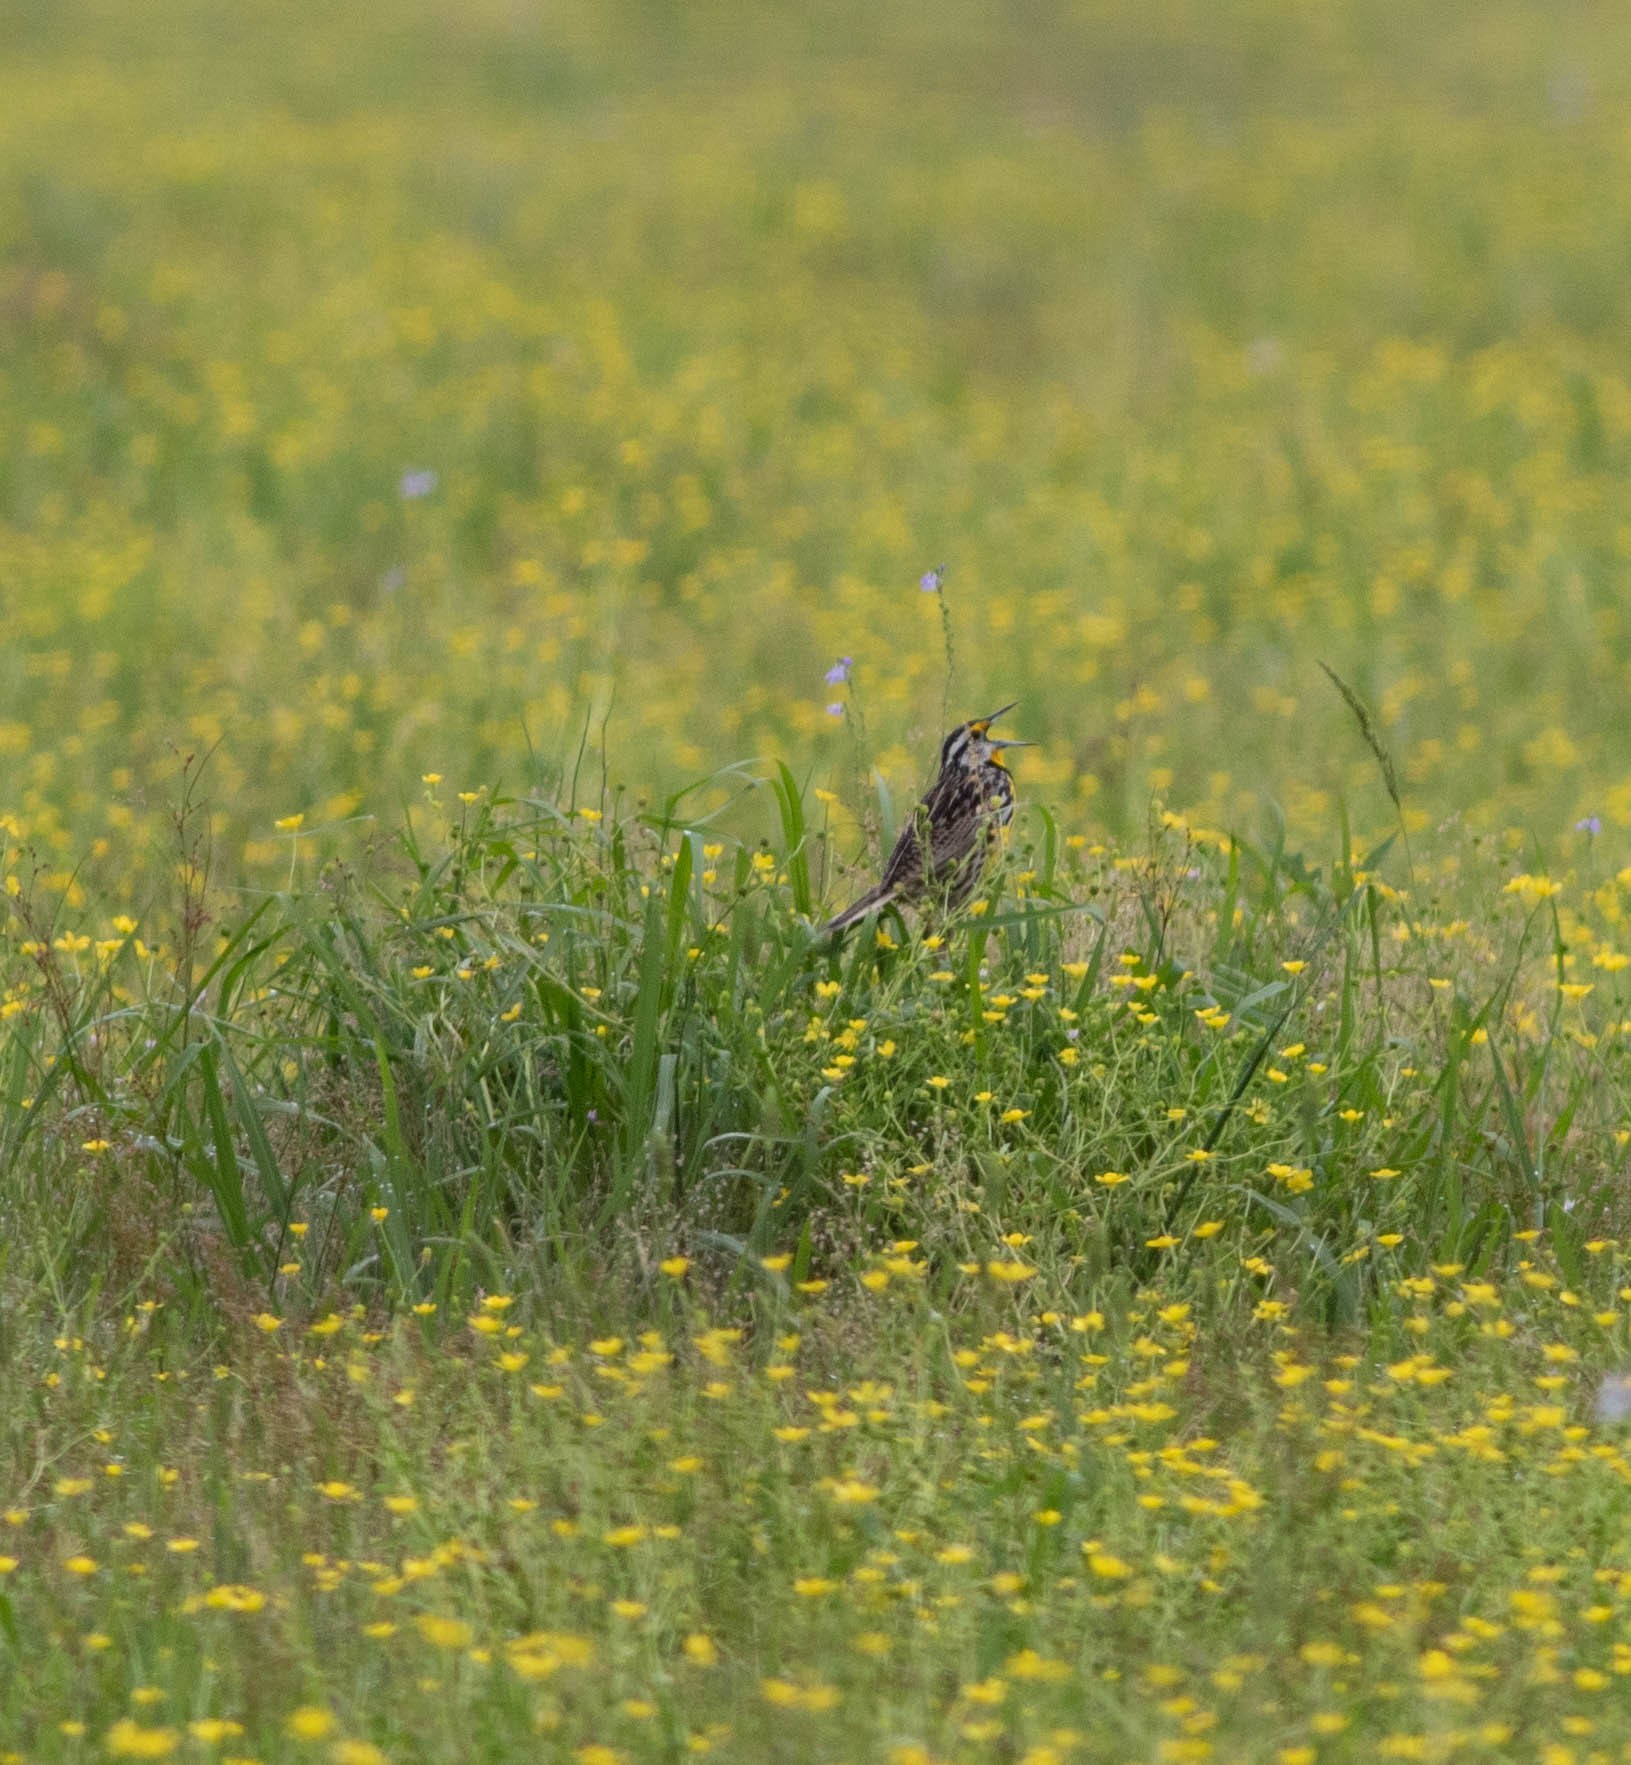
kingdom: Animalia
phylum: Chordata
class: Aves
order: Passeriformes
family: Icteridae
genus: Sturnella
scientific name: Sturnella magna
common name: Eastern meadowlark
